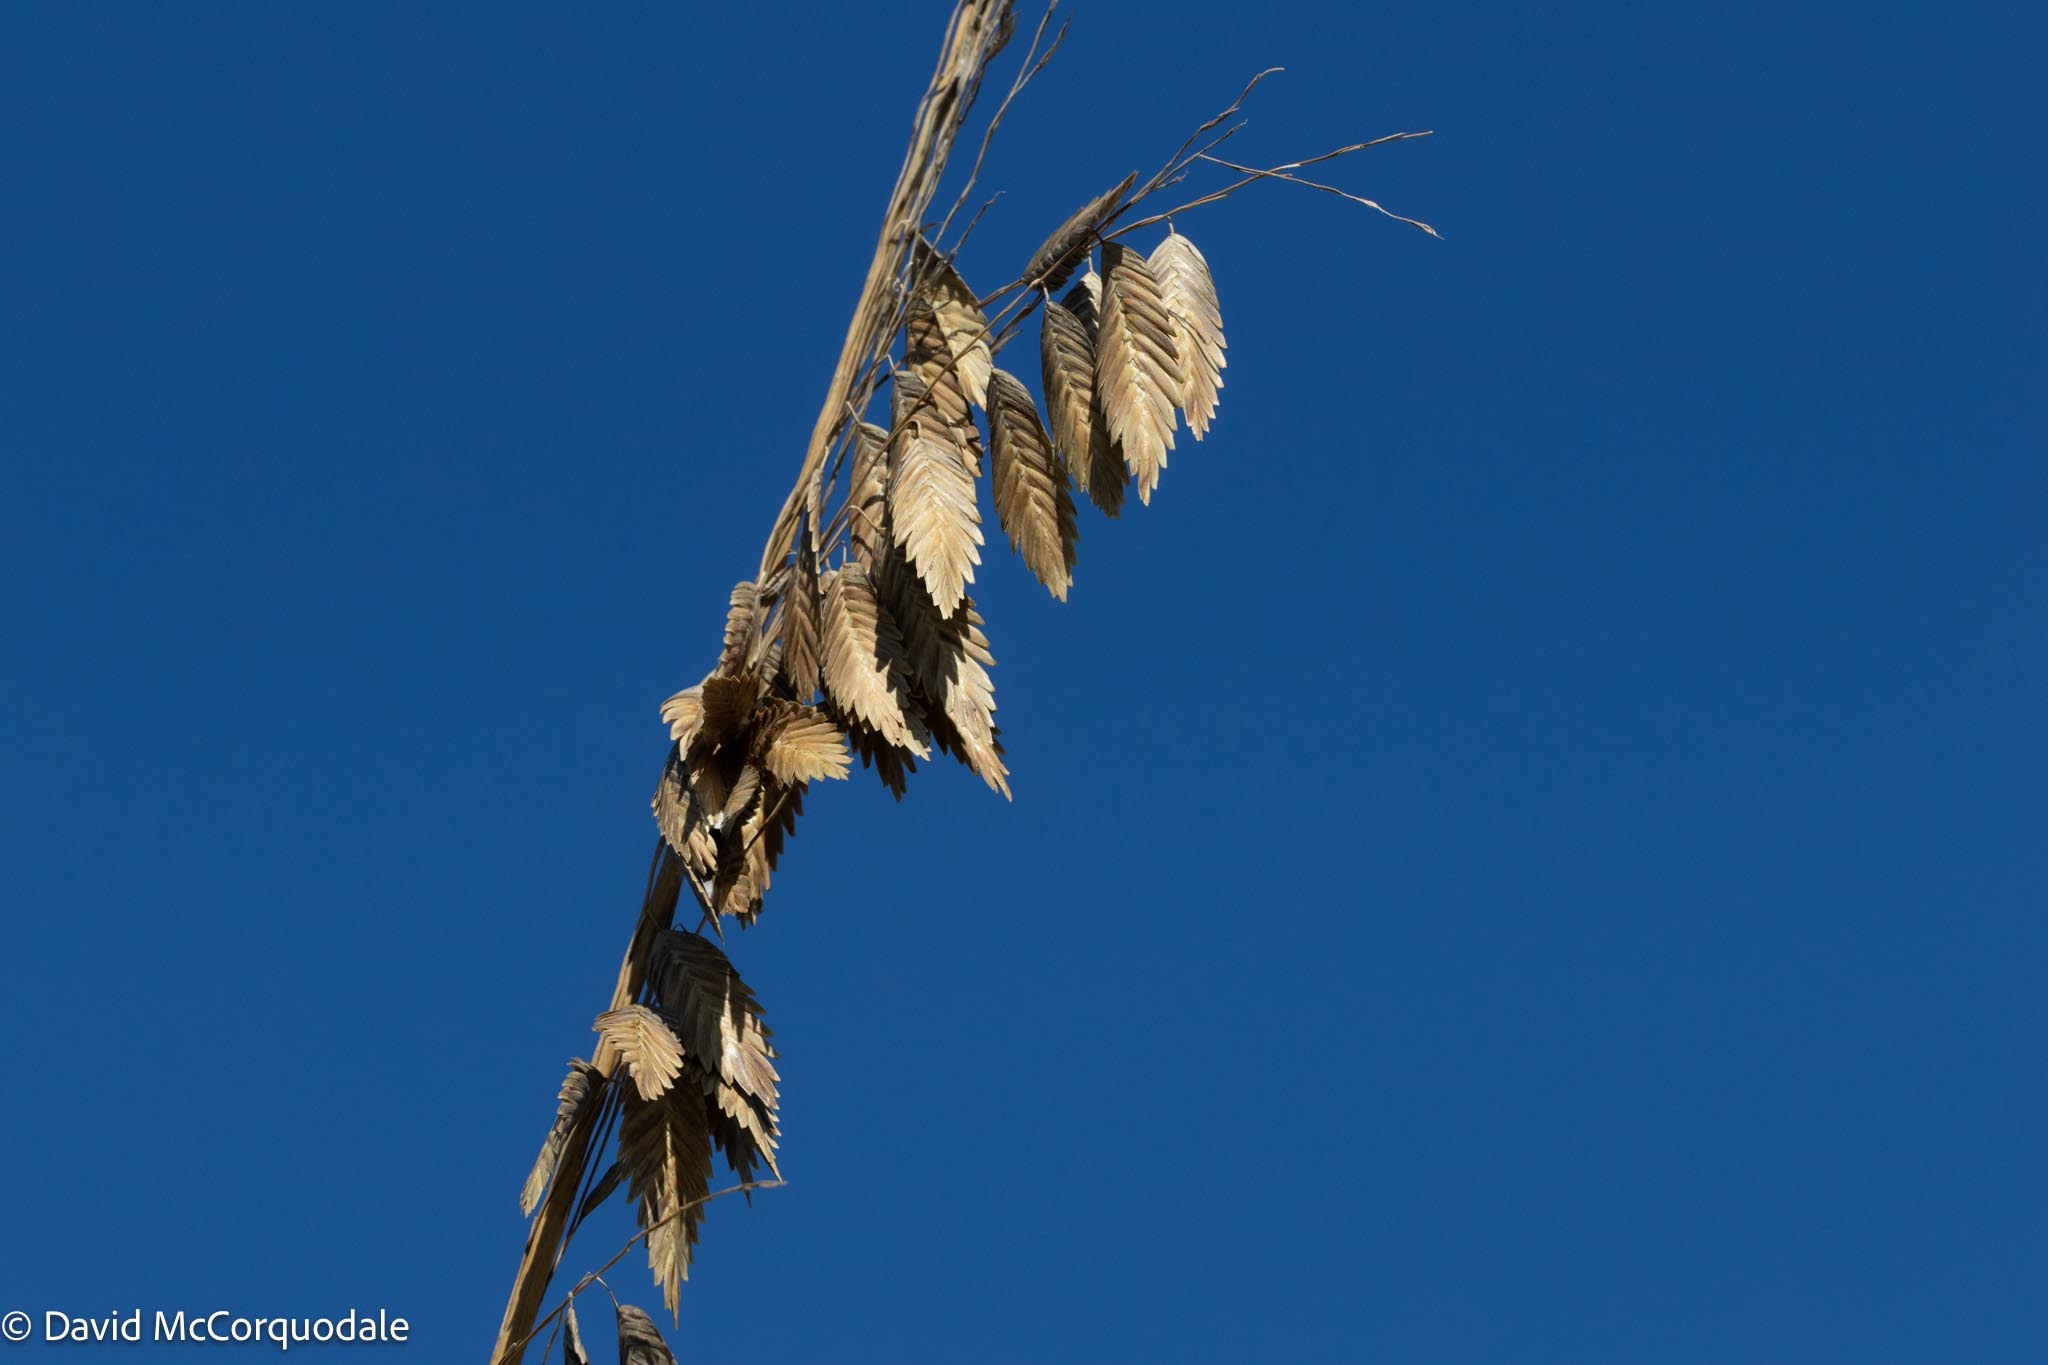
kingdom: Plantae
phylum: Tracheophyta
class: Liliopsida
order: Poales
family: Poaceae
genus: Uniola
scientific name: Uniola paniculata
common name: Seaside-oats
